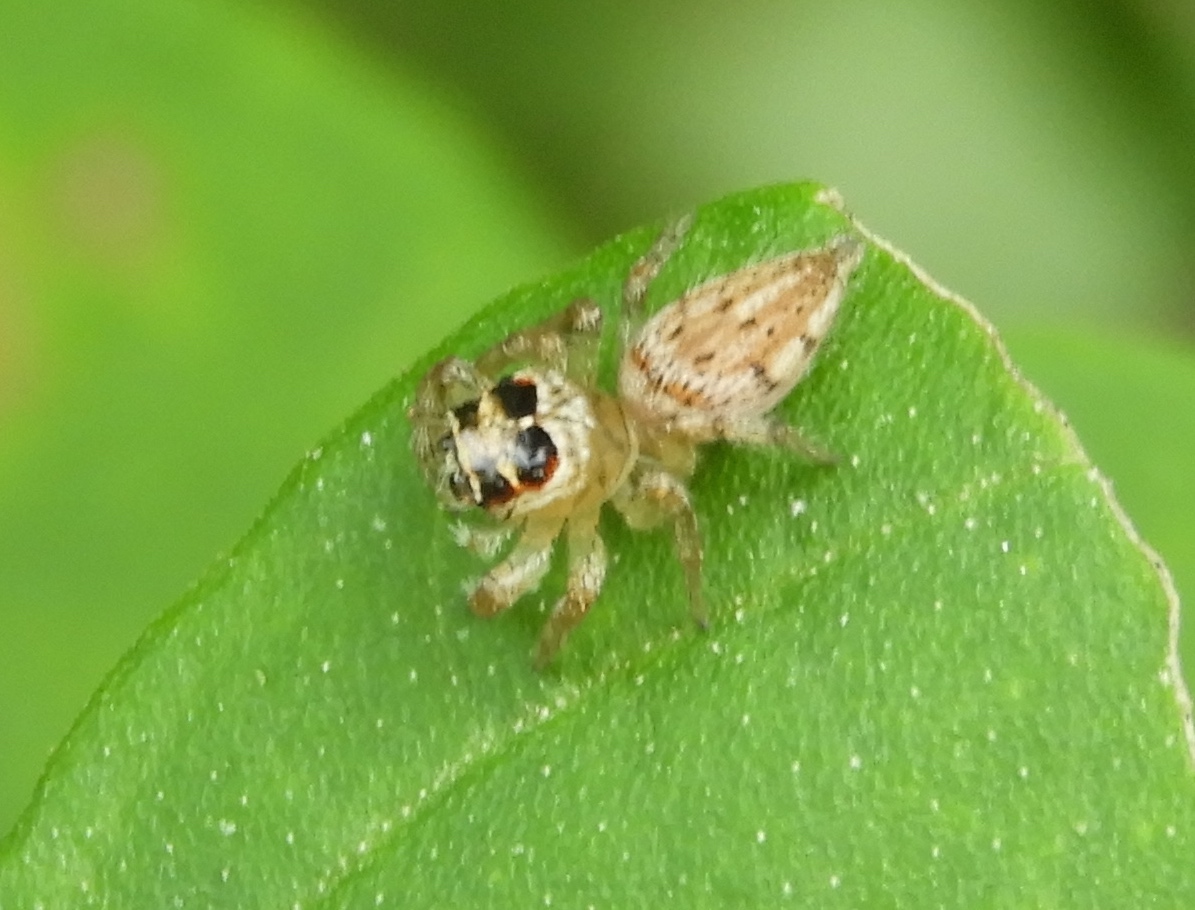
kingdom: Animalia
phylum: Arthropoda
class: Arachnida
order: Araneae
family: Salticidae
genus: Colonus
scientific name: Colonus hesperus
